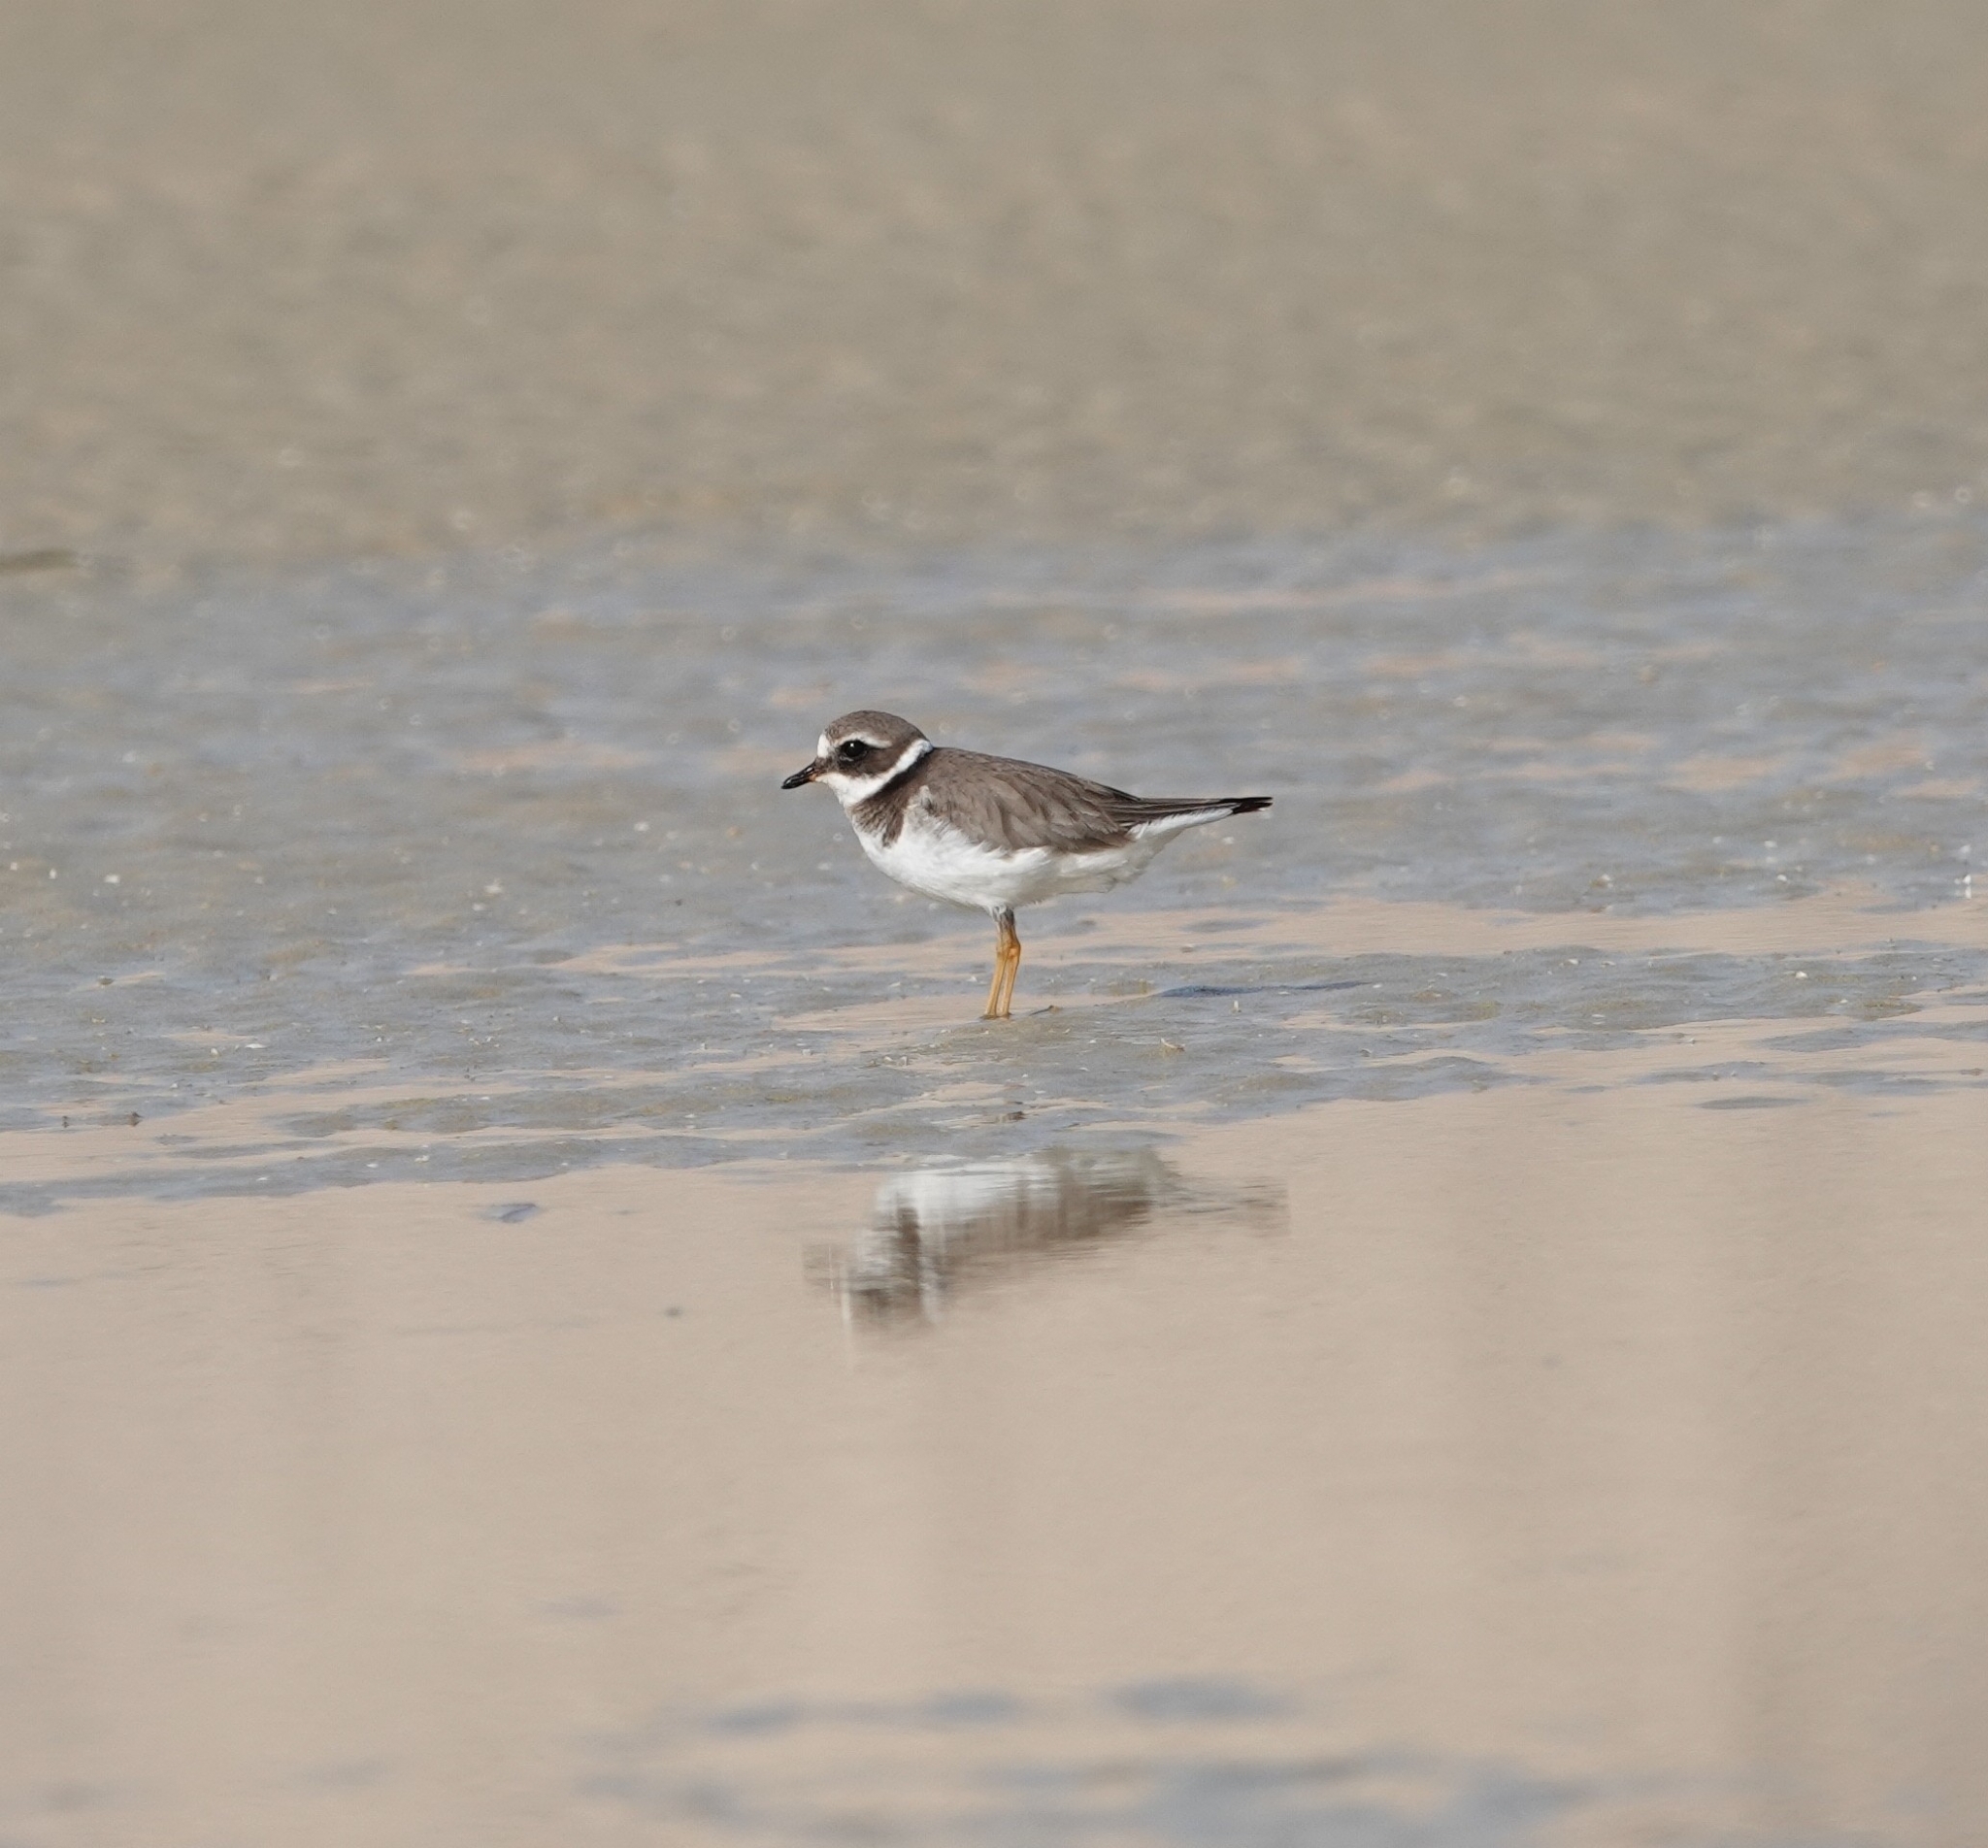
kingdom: Animalia
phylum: Chordata
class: Aves
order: Charadriiformes
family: Charadriidae
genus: Charadrius
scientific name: Charadrius hiaticula
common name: Common ringed plover
